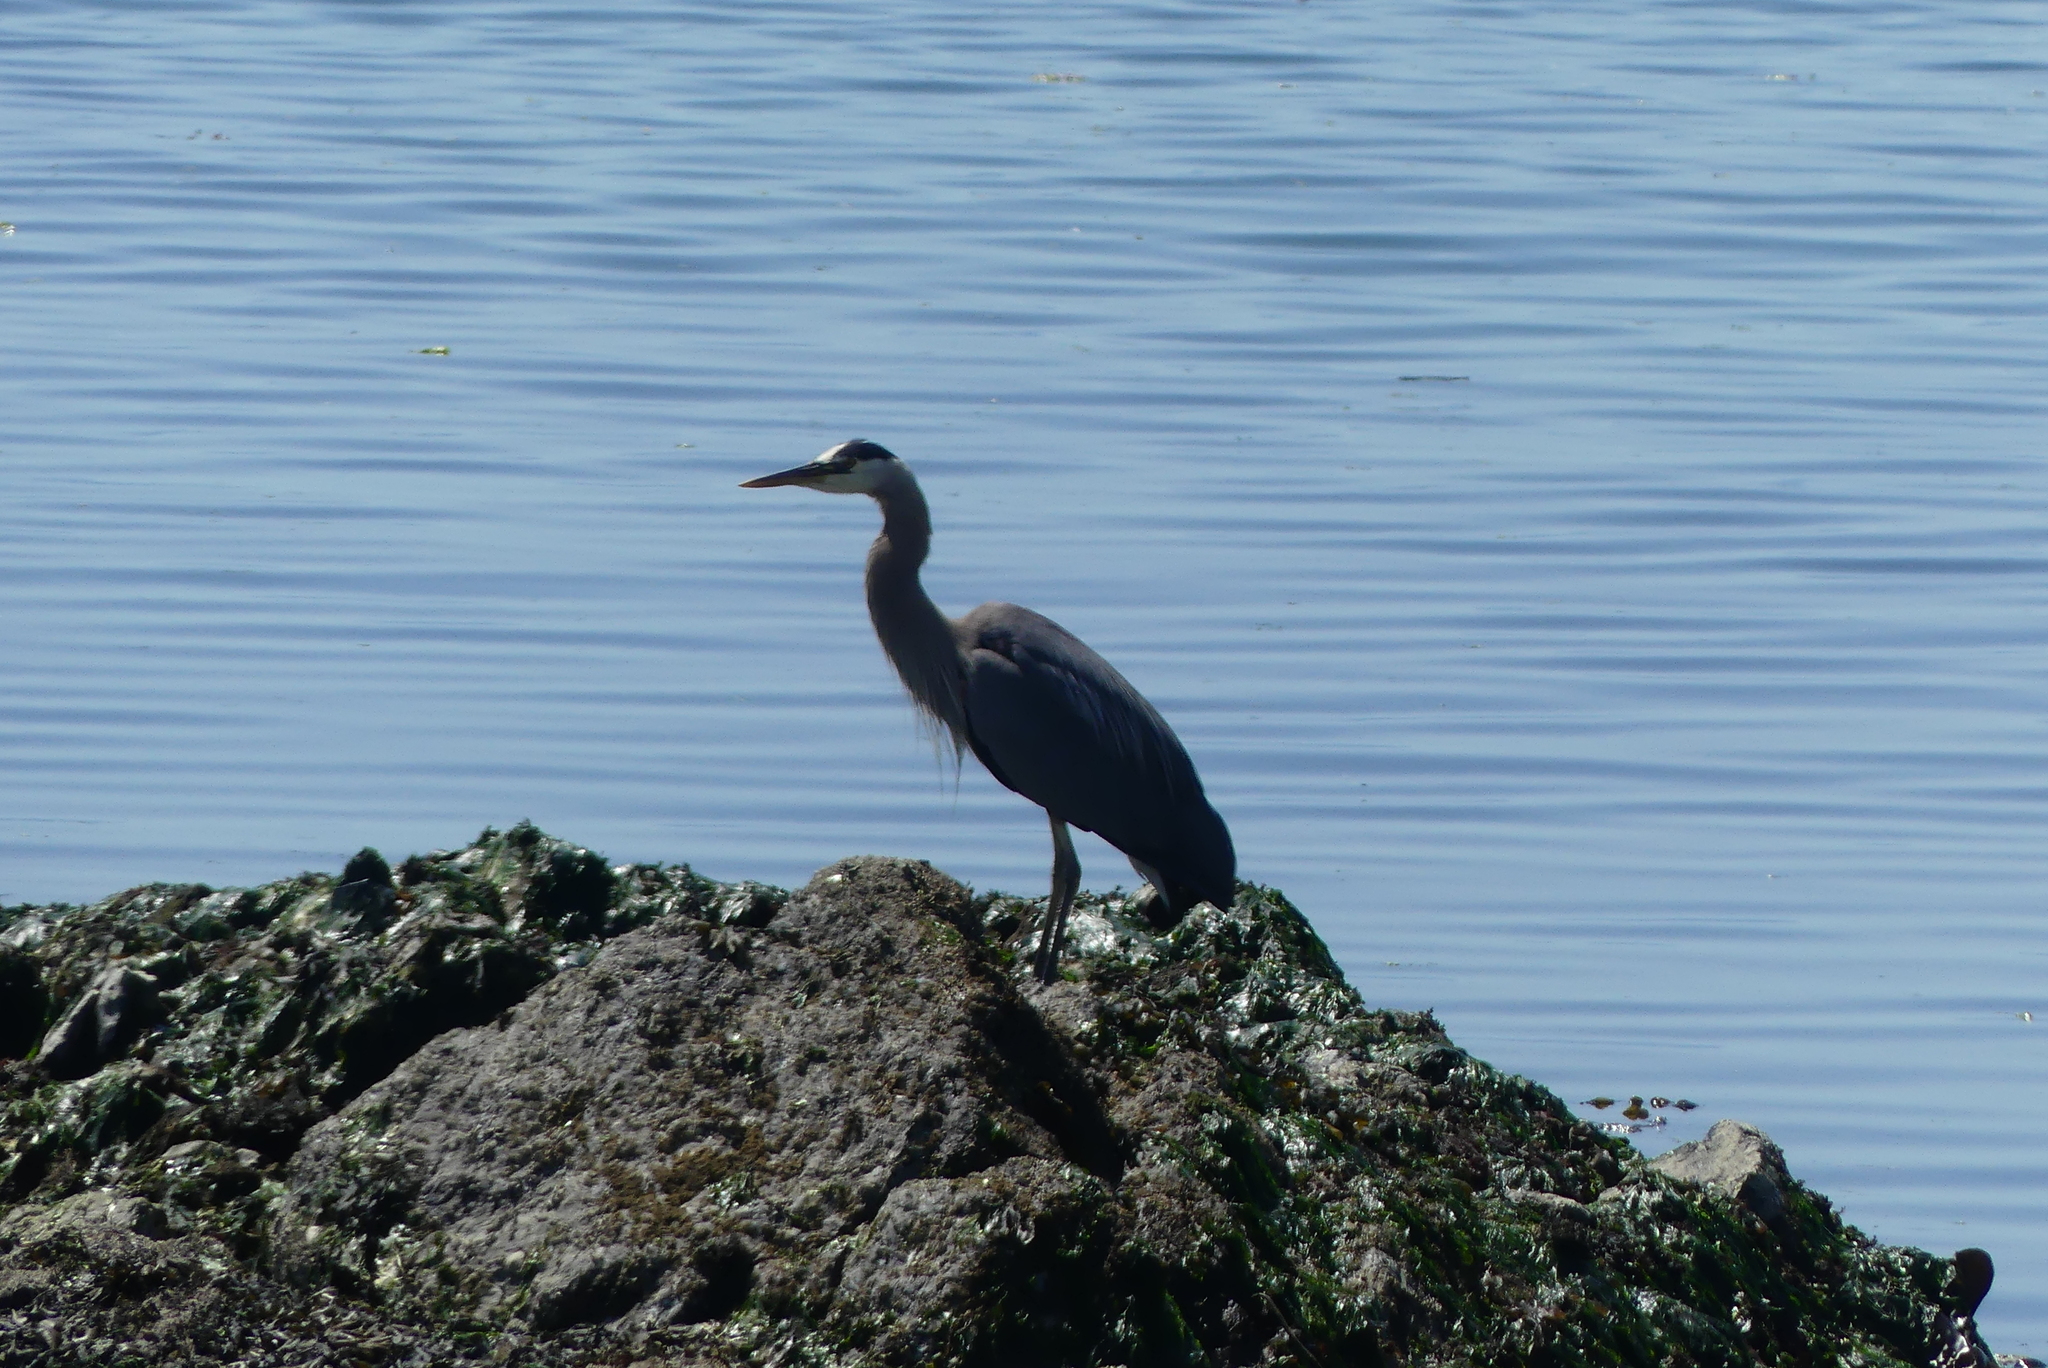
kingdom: Animalia
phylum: Chordata
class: Aves
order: Pelecaniformes
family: Ardeidae
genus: Ardea
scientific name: Ardea herodias
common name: Great blue heron
